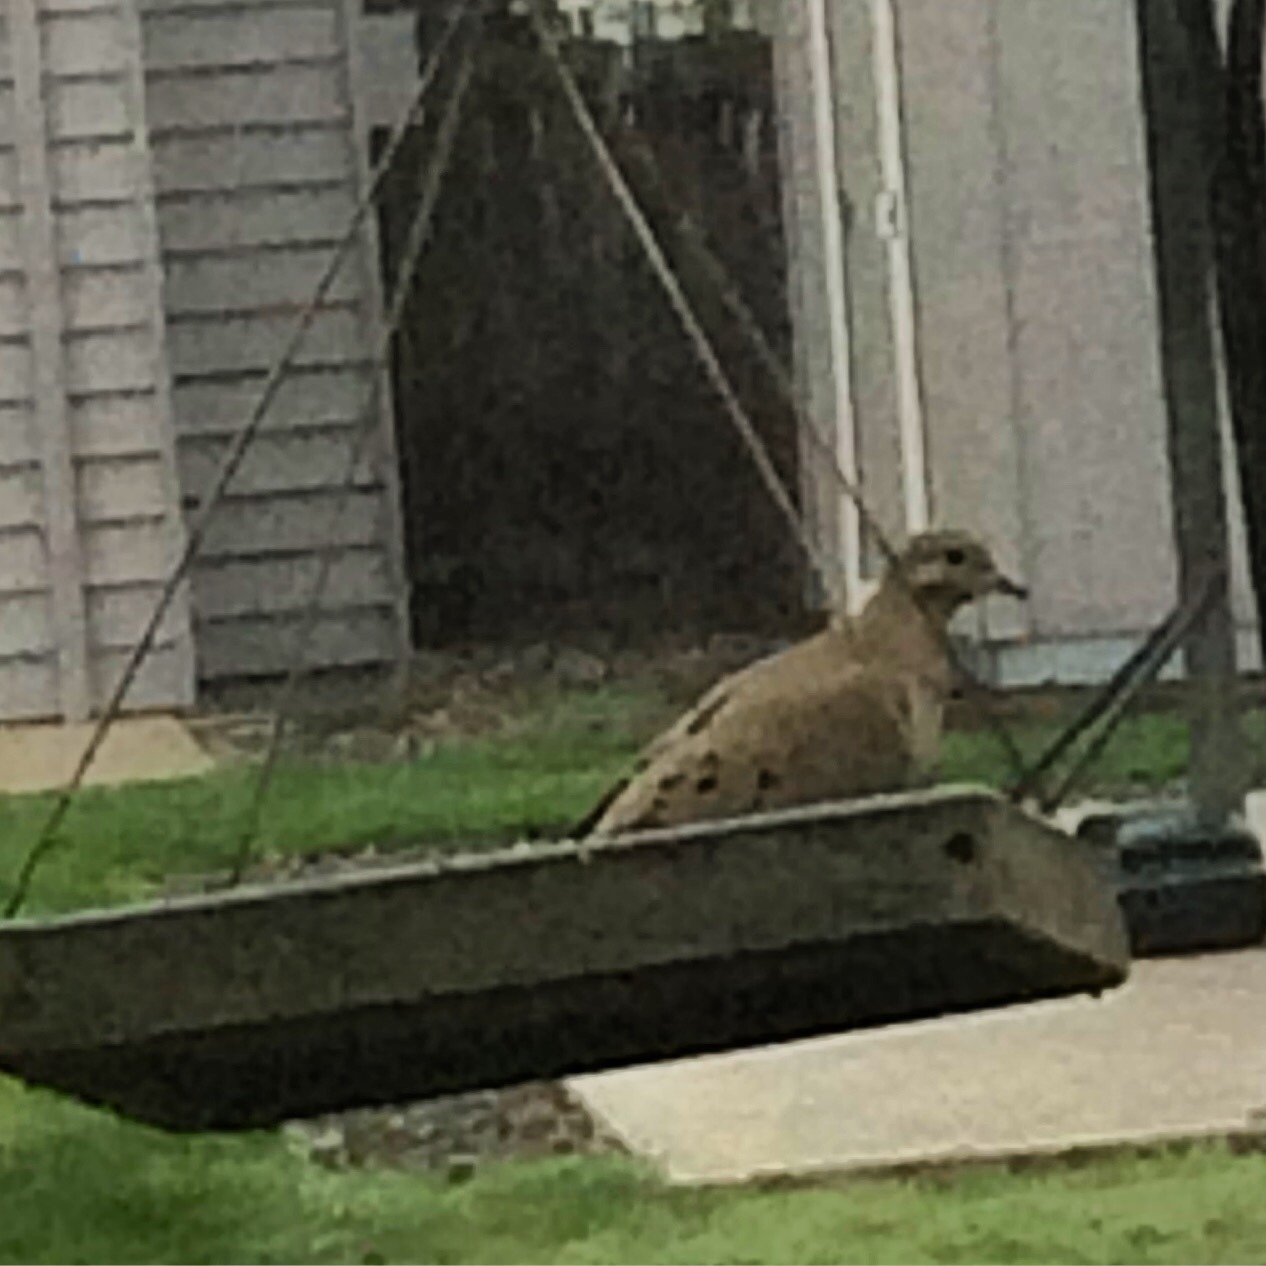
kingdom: Animalia
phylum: Chordata
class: Aves
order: Columbiformes
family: Columbidae
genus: Zenaida
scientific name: Zenaida macroura
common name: Mourning dove
